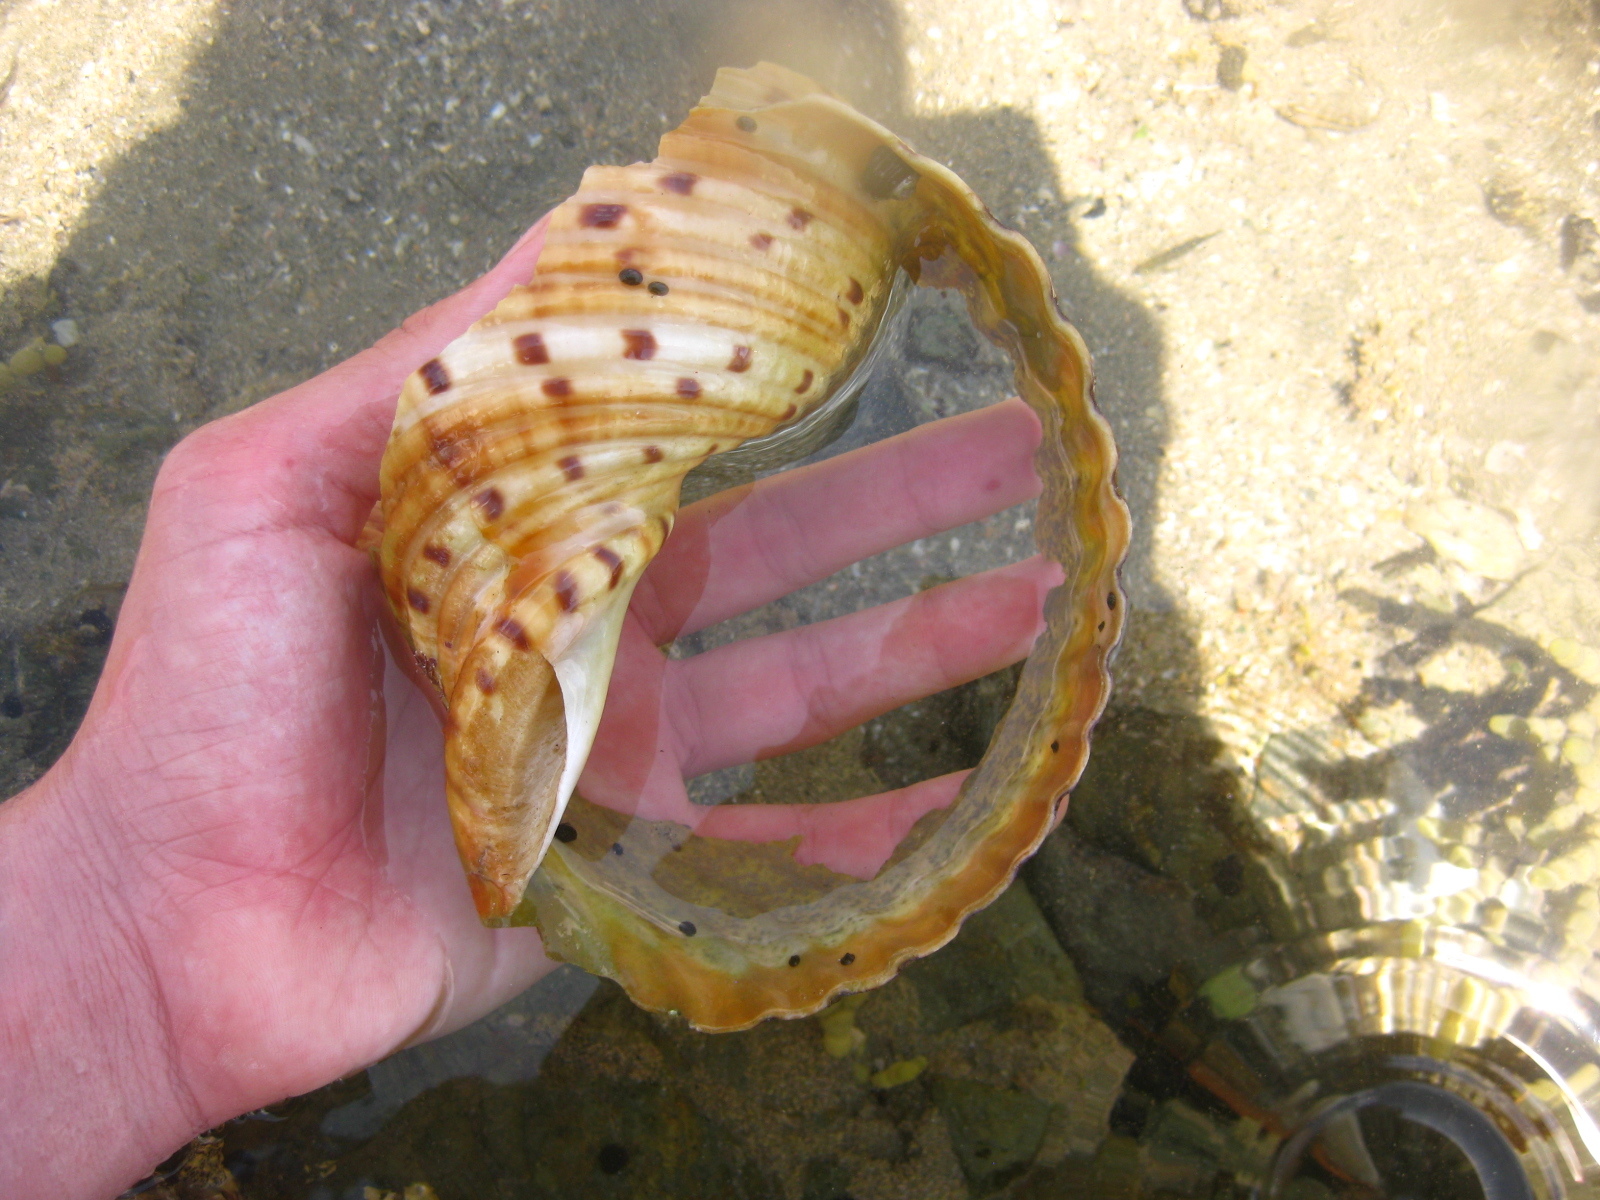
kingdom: Animalia
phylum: Mollusca
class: Gastropoda
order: Littorinimorpha
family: Tonnidae
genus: Tonna
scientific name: Tonna tankervillii
